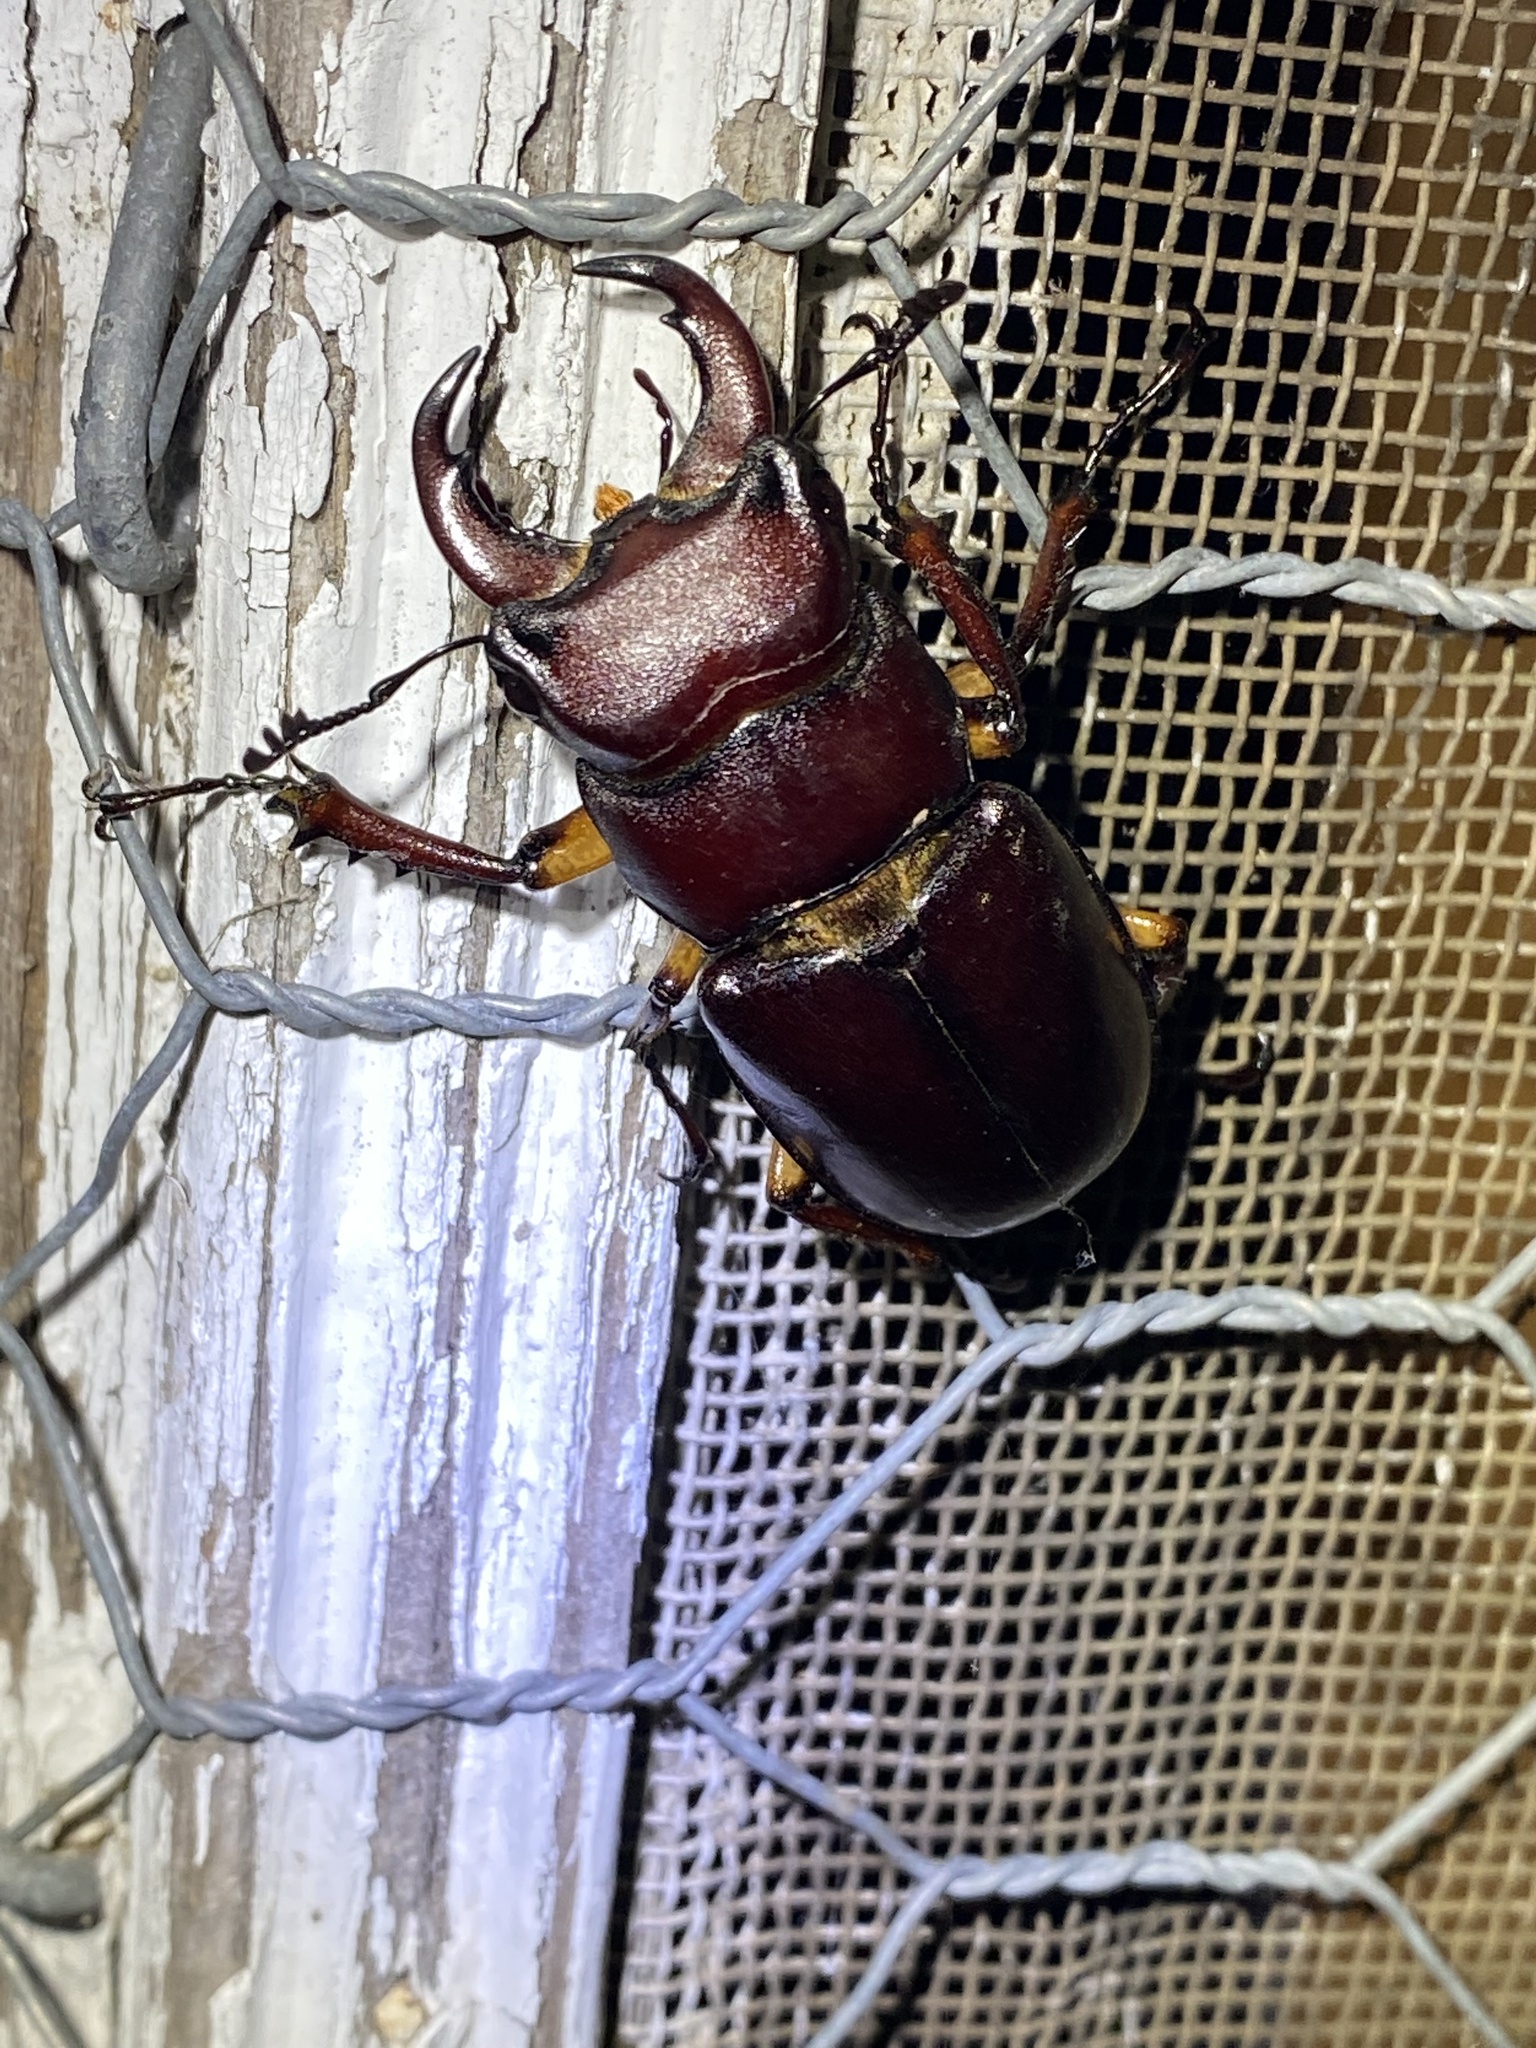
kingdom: Animalia
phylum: Arthropoda
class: Insecta
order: Coleoptera
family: Lucanidae
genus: Lucanus
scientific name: Lucanus capreolus
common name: Stag beetle
